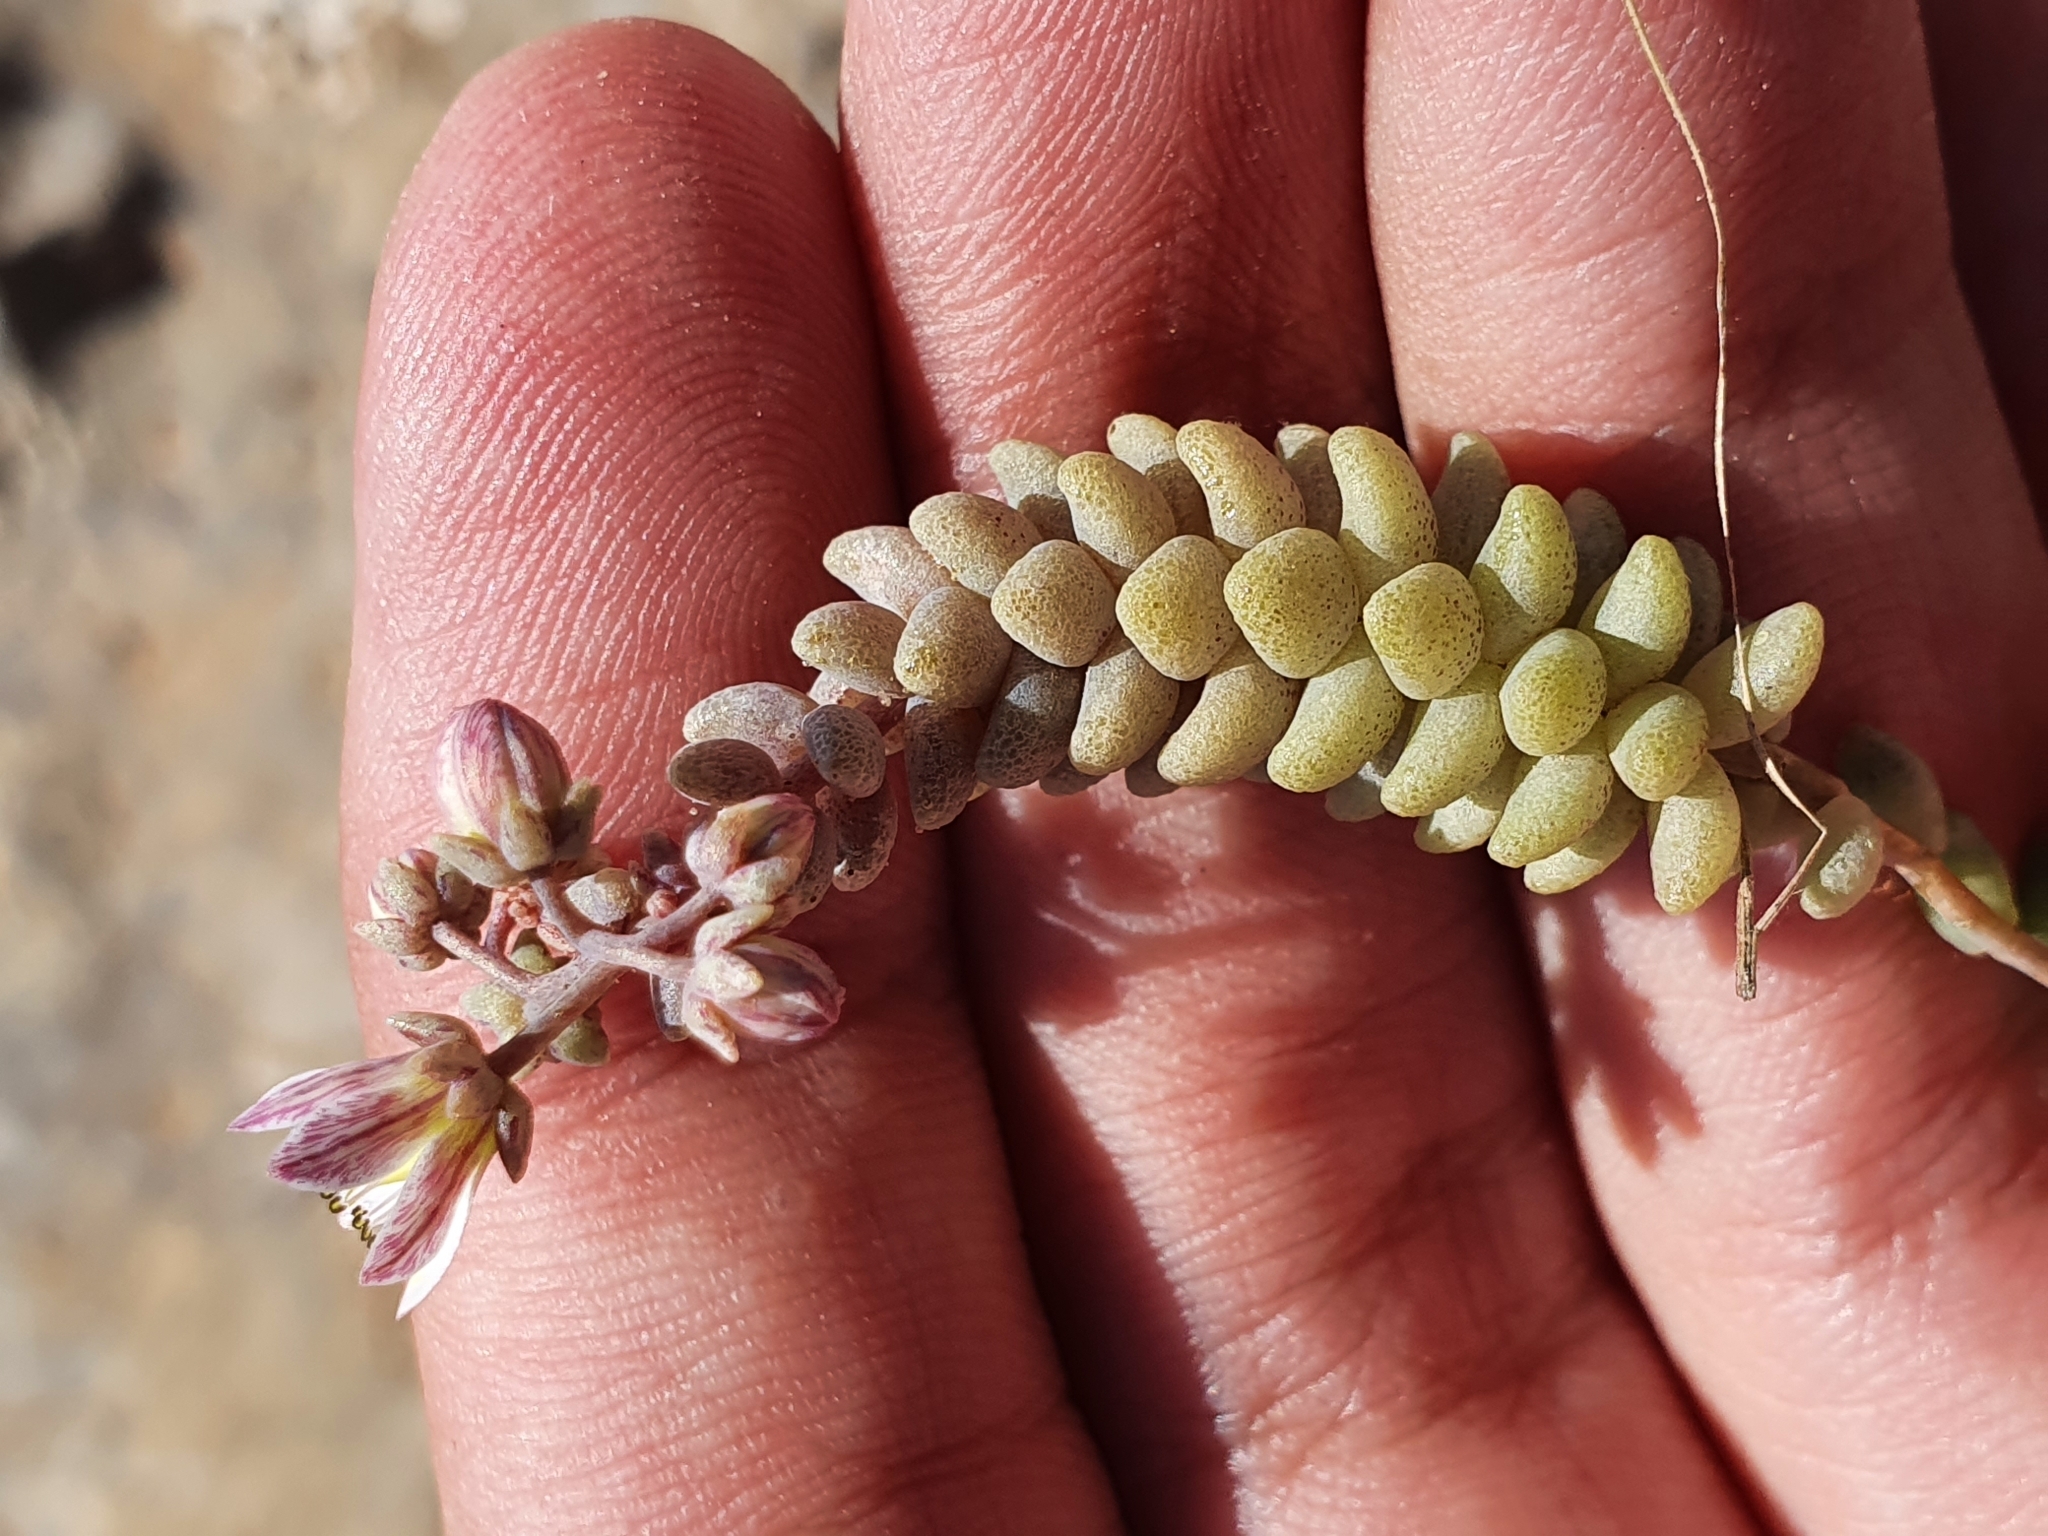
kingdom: Plantae
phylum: Tracheophyta
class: Magnoliopsida
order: Saxifragales
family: Crassulaceae
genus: Sedum
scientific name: Sedum dasyphyllum
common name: Thick-leaf stonecrop
